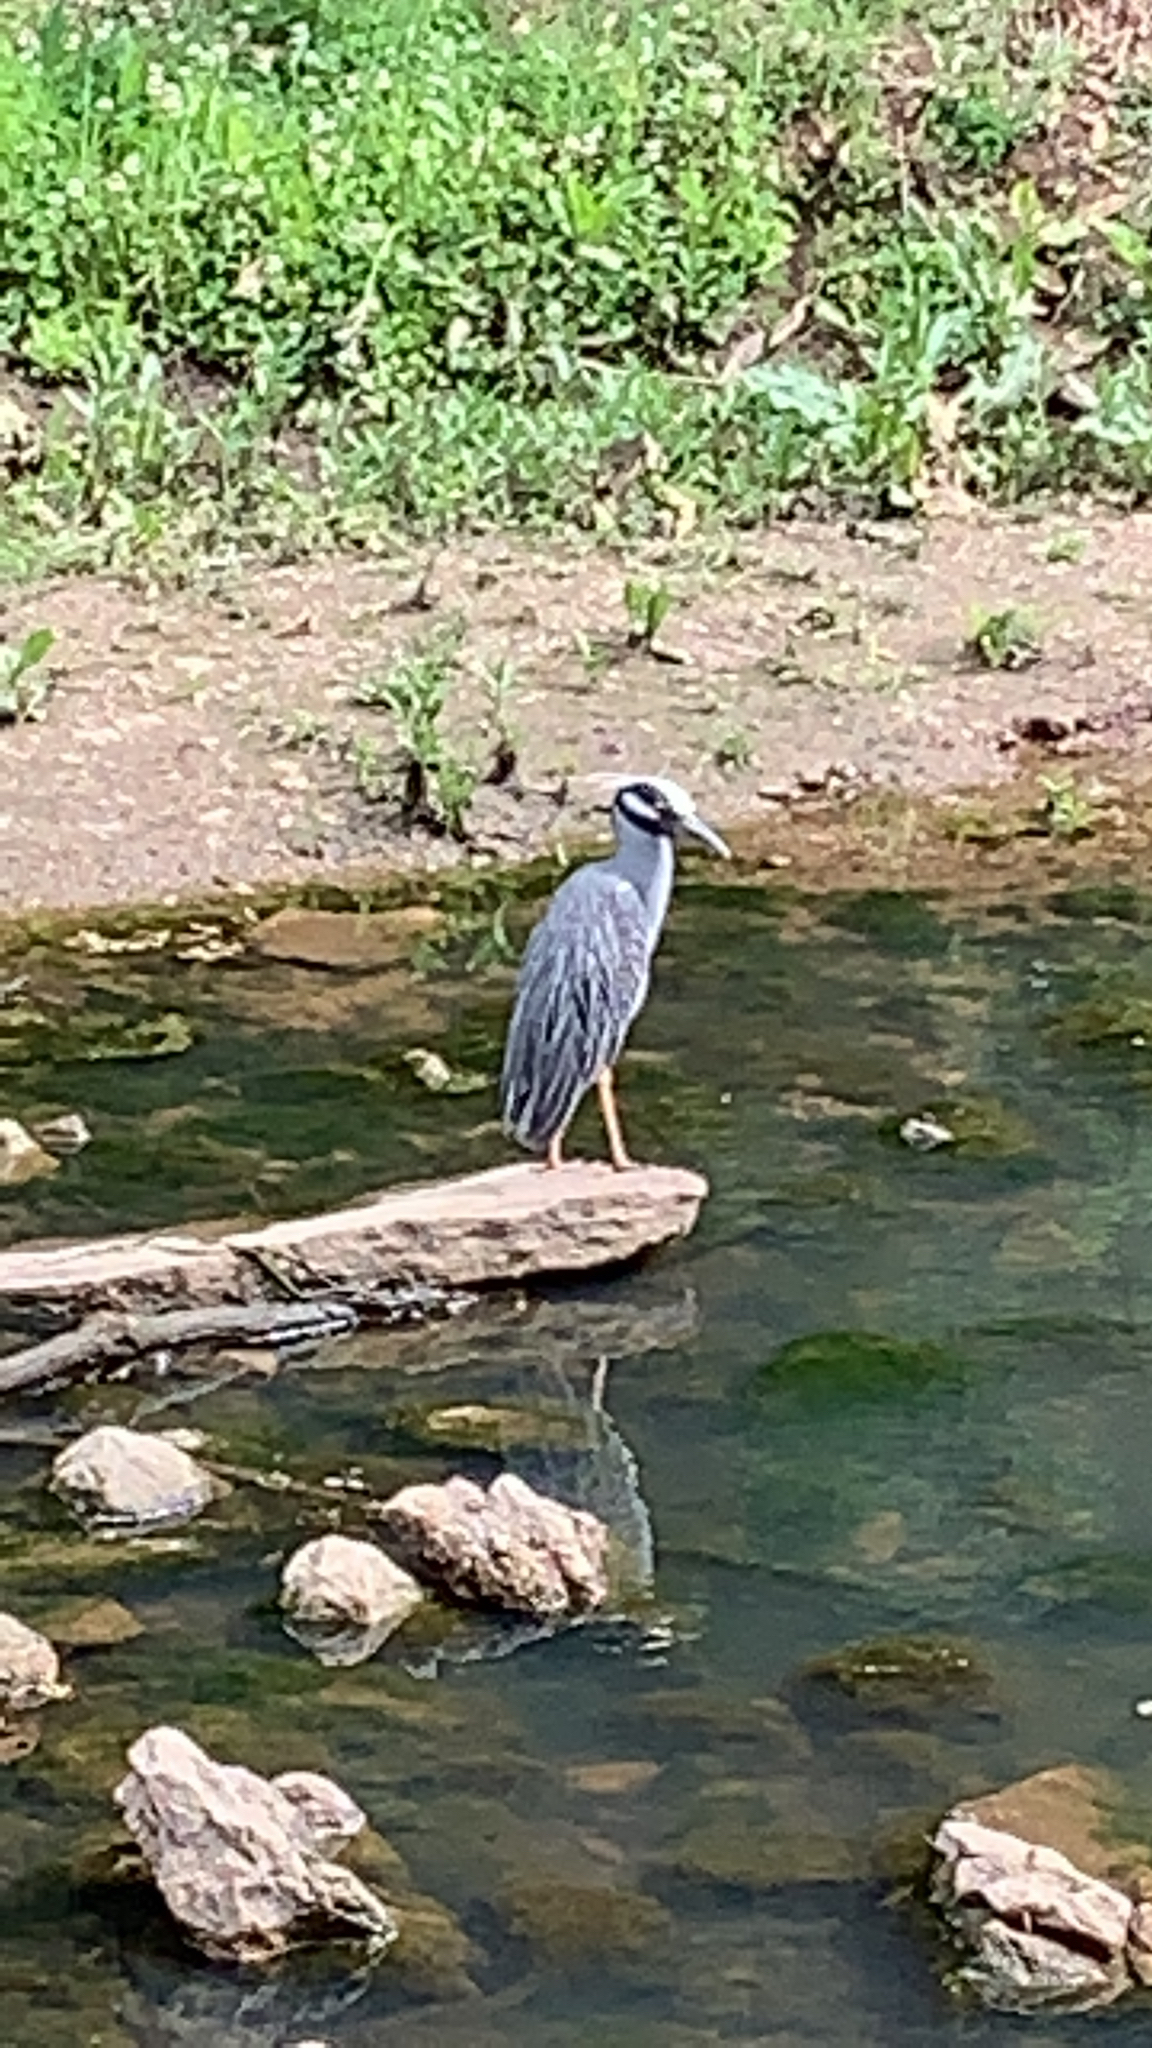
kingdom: Animalia
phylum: Chordata
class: Aves
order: Pelecaniformes
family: Ardeidae
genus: Nyctanassa
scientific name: Nyctanassa violacea
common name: Yellow-crowned night heron
